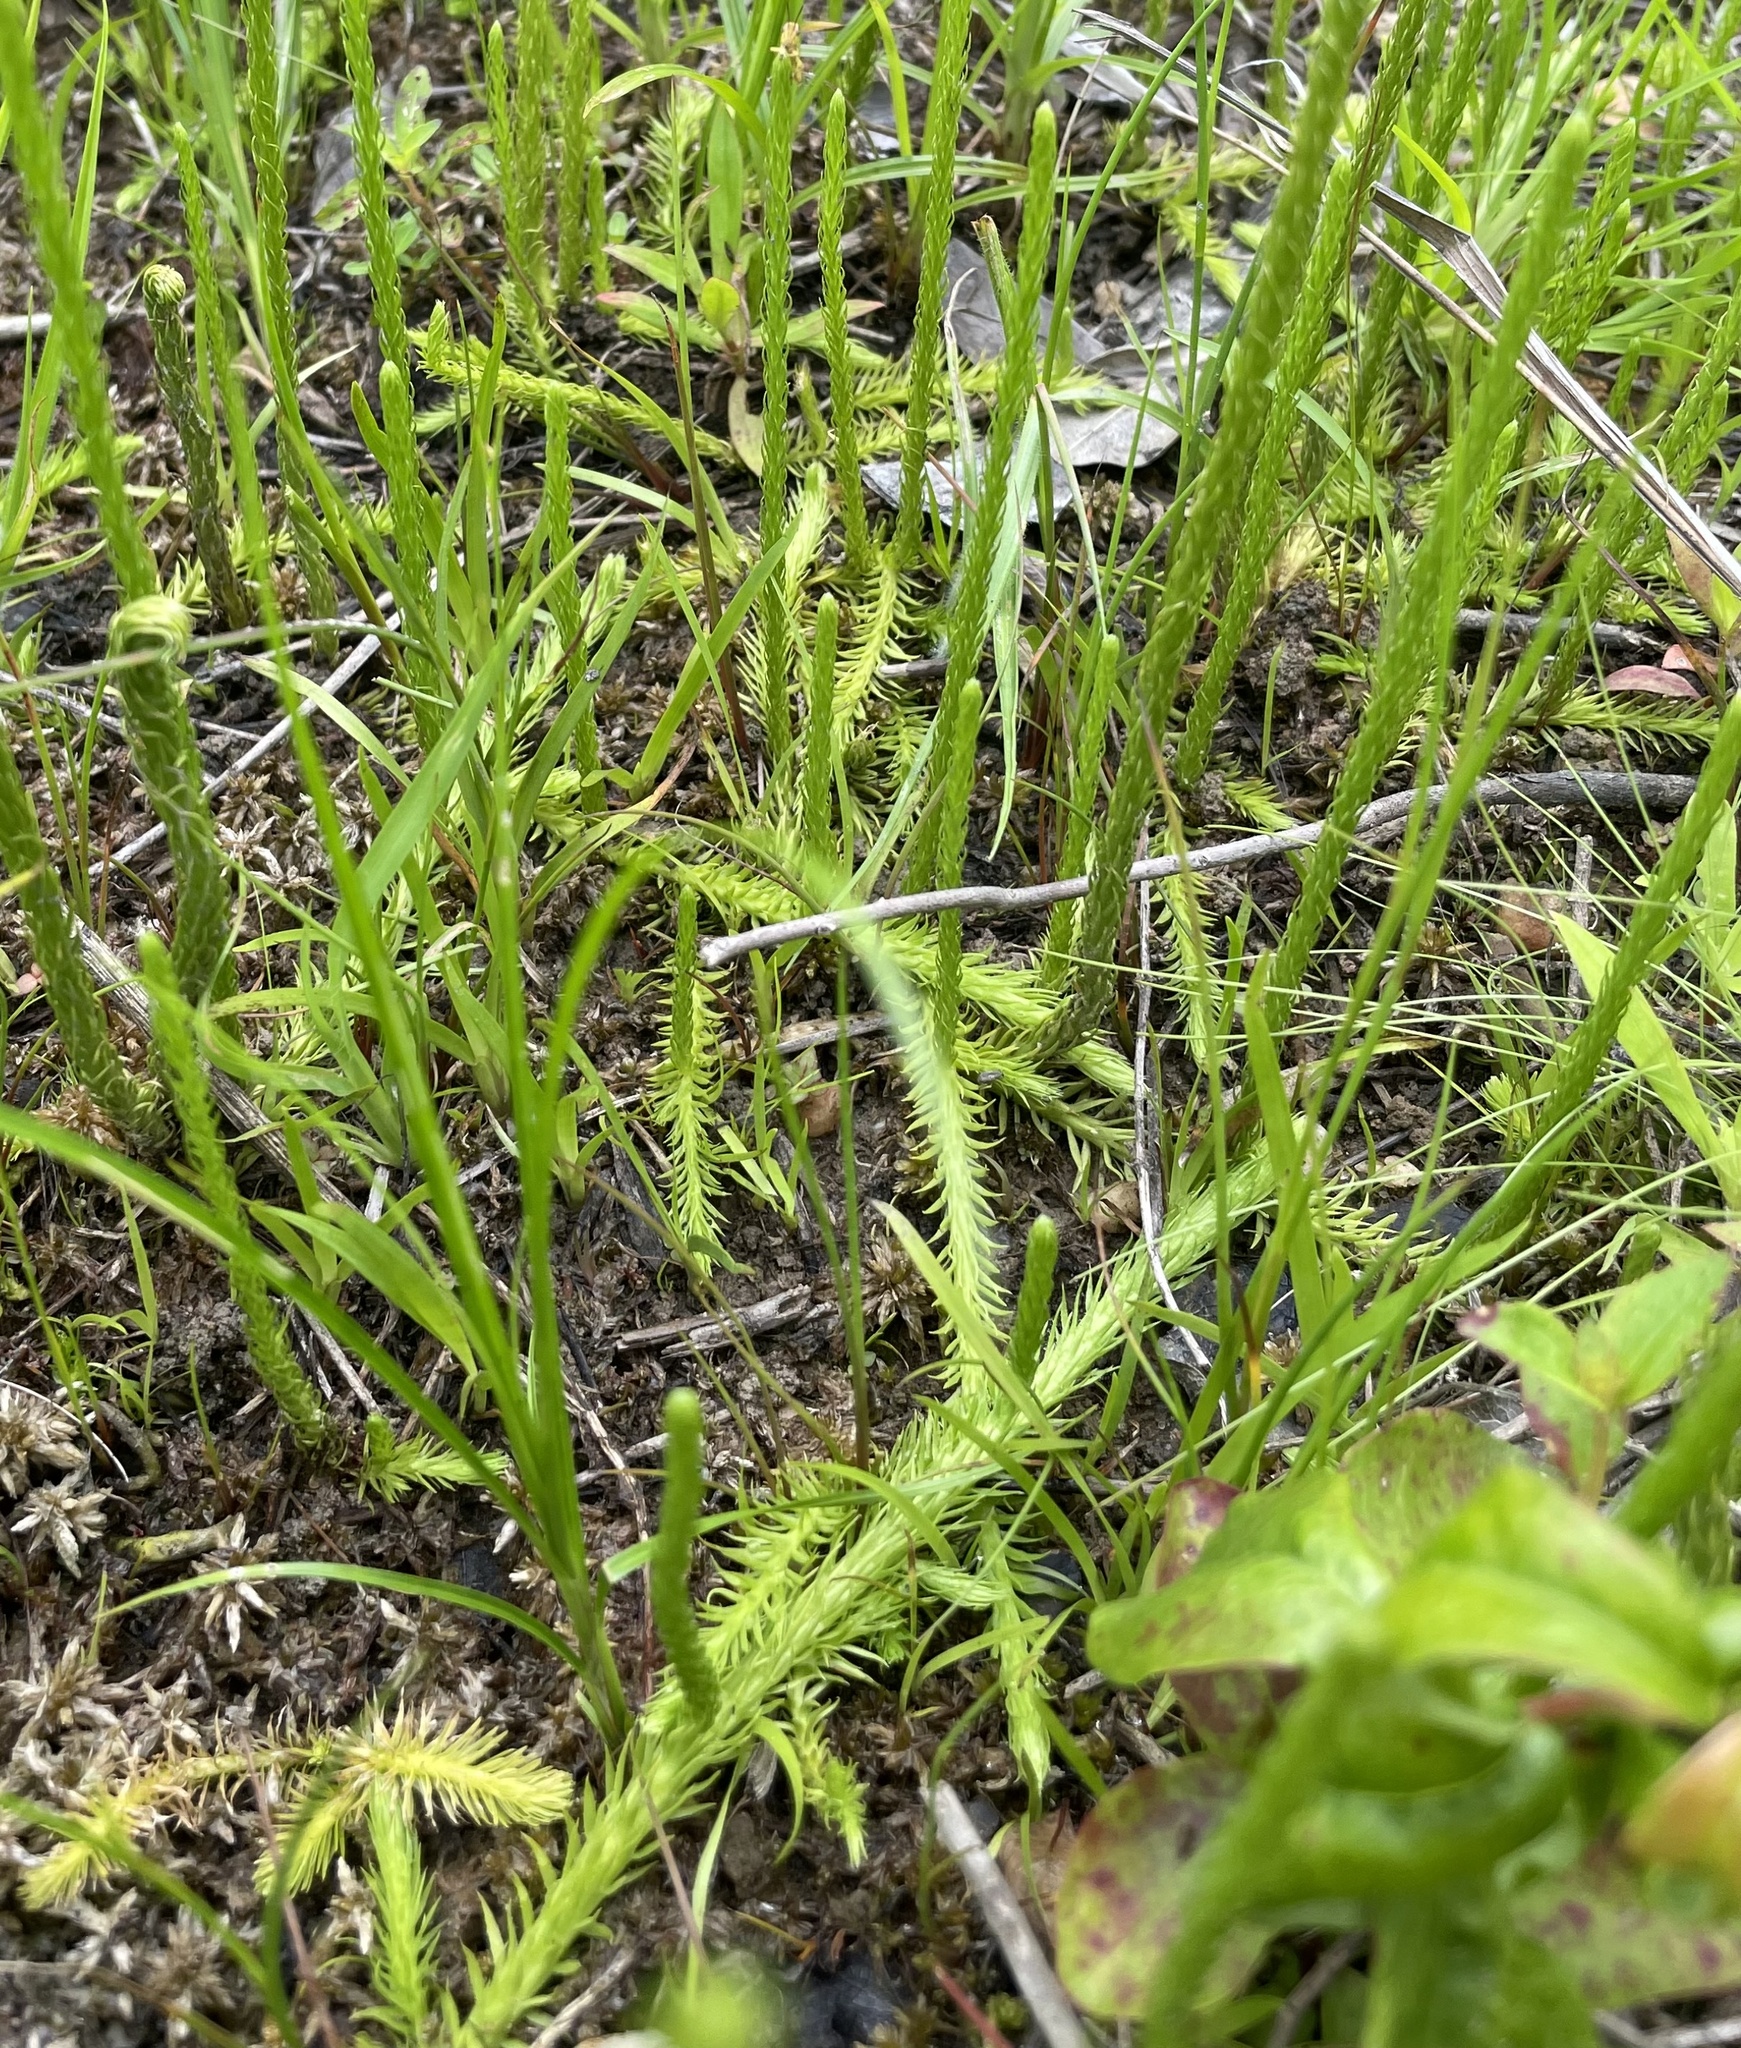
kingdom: Plantae
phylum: Tracheophyta
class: Lycopodiopsida
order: Lycopodiales
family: Lycopodiaceae
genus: Lycopodiella
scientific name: Lycopodiella appressa
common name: Appressed bog clubmoss
